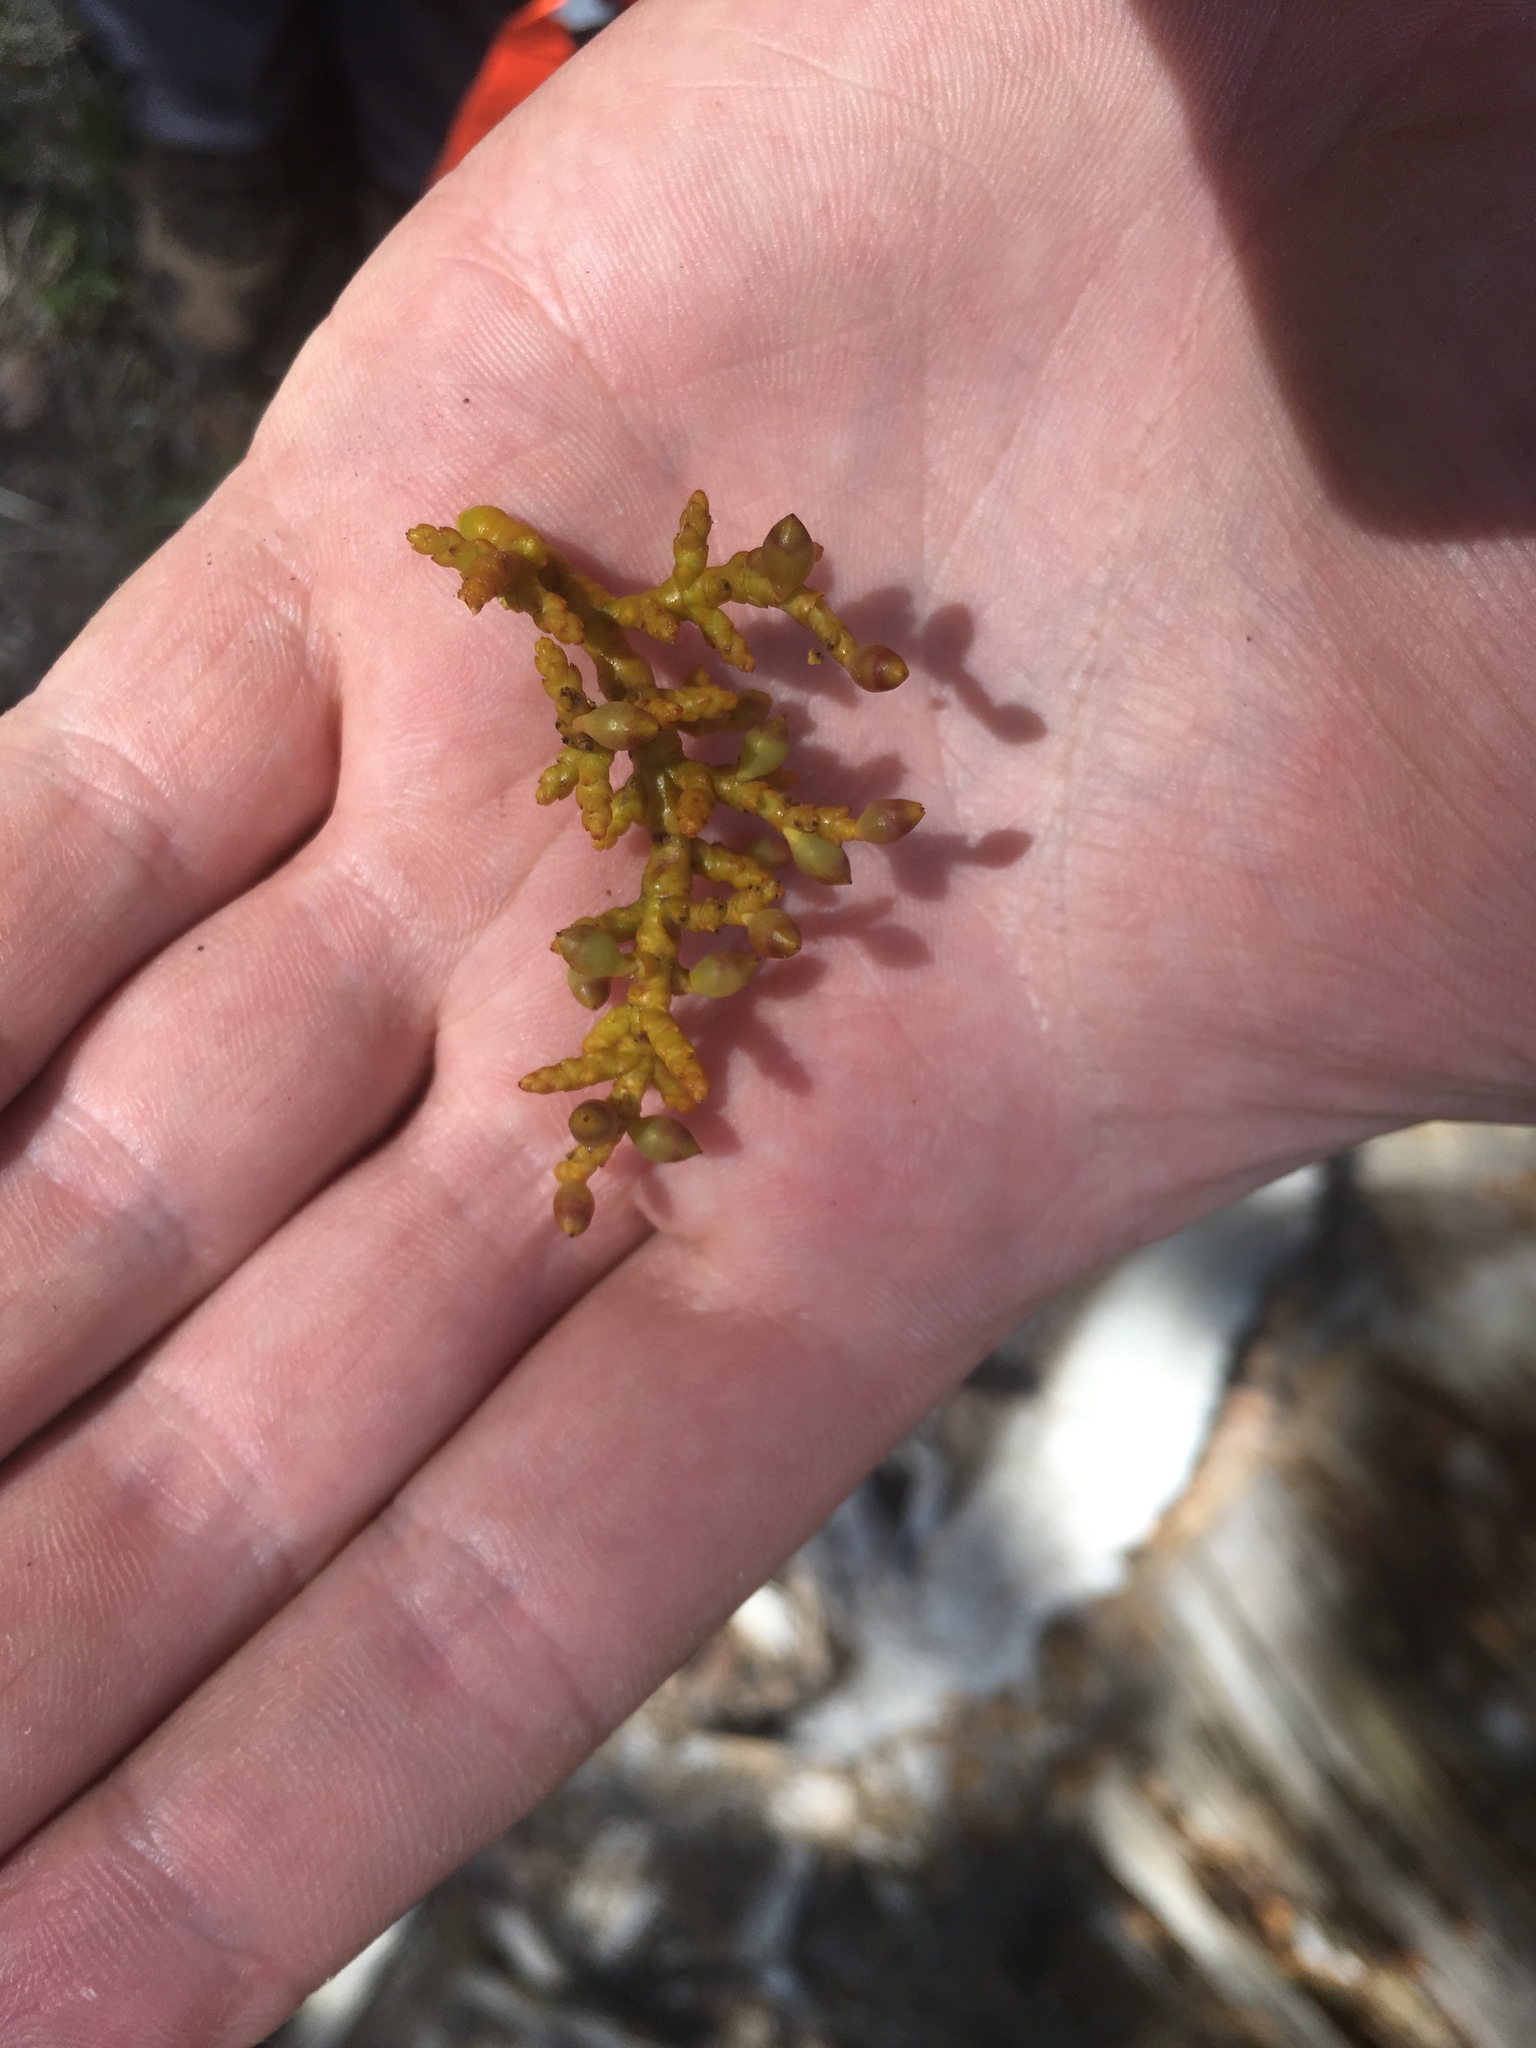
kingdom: Plantae
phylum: Tracheophyta
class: Magnoliopsida
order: Santalales
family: Viscaceae
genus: Arceuthobium
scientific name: Arceuthobium vaginatum
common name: Southwestern dwarf-mistletoe
